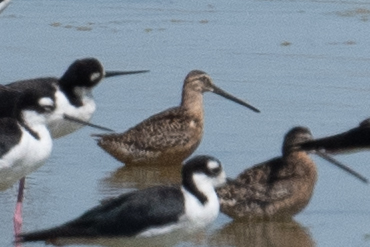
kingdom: Animalia
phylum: Chordata
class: Aves
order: Charadriiformes
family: Scolopacidae
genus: Limnodromus
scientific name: Limnodromus scolopaceus
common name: Long-billed dowitcher
